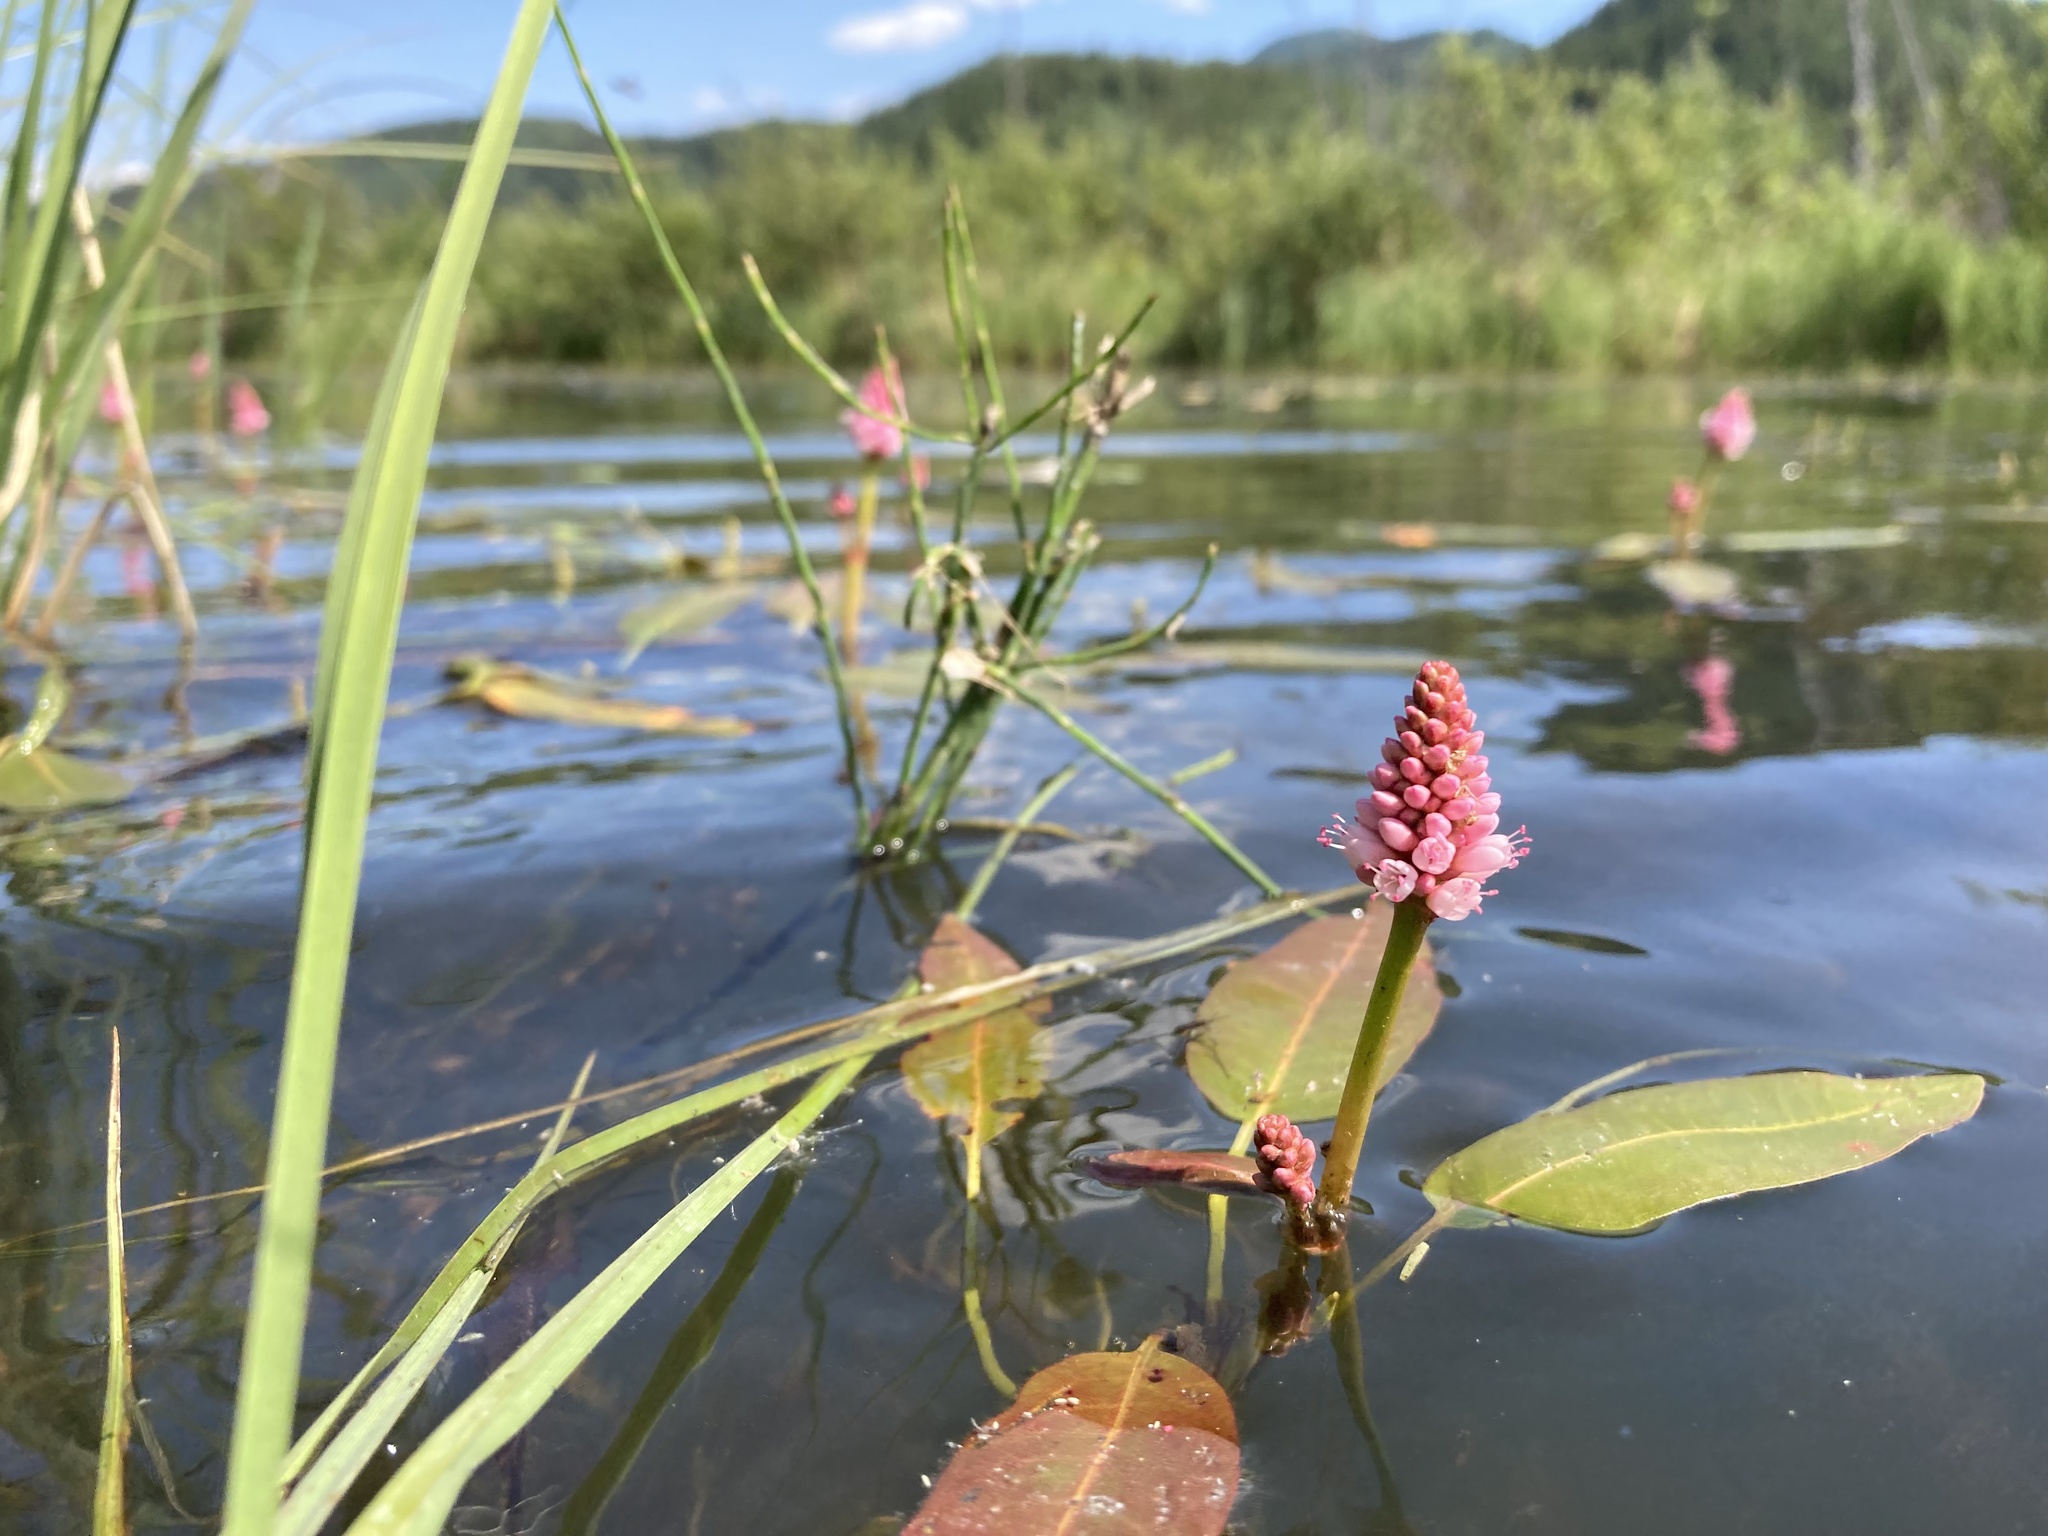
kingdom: Plantae
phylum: Tracheophyta
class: Magnoliopsida
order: Caryophyllales
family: Polygonaceae
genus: Persicaria
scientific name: Persicaria amphibia
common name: Amphibious bistort
